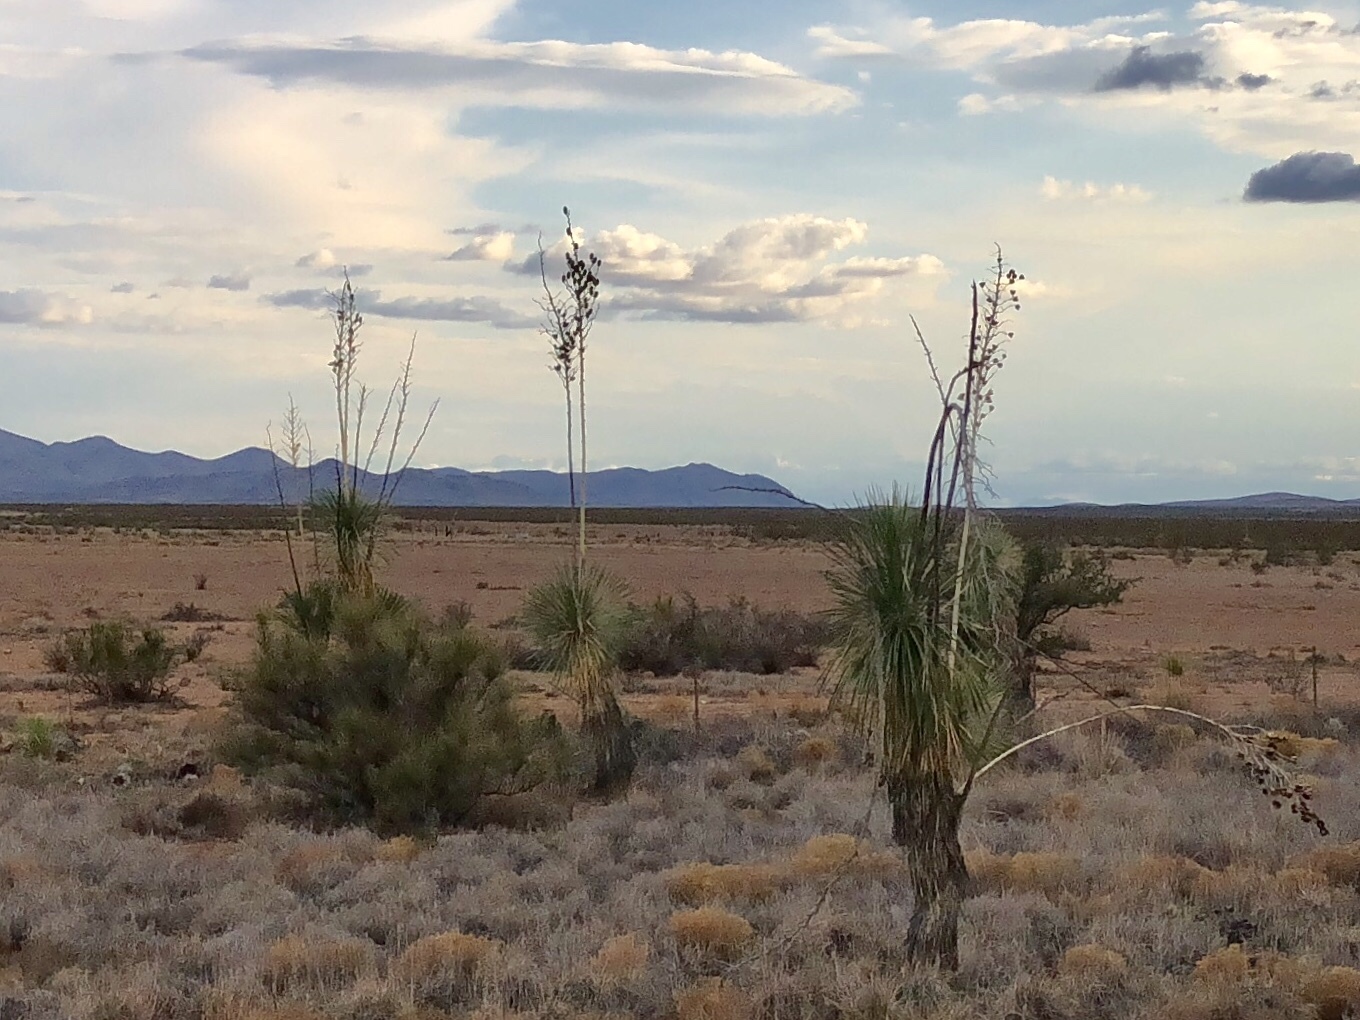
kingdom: Plantae
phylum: Tracheophyta
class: Liliopsida
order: Asparagales
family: Asparagaceae
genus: Yucca
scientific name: Yucca elata
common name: Palmella
